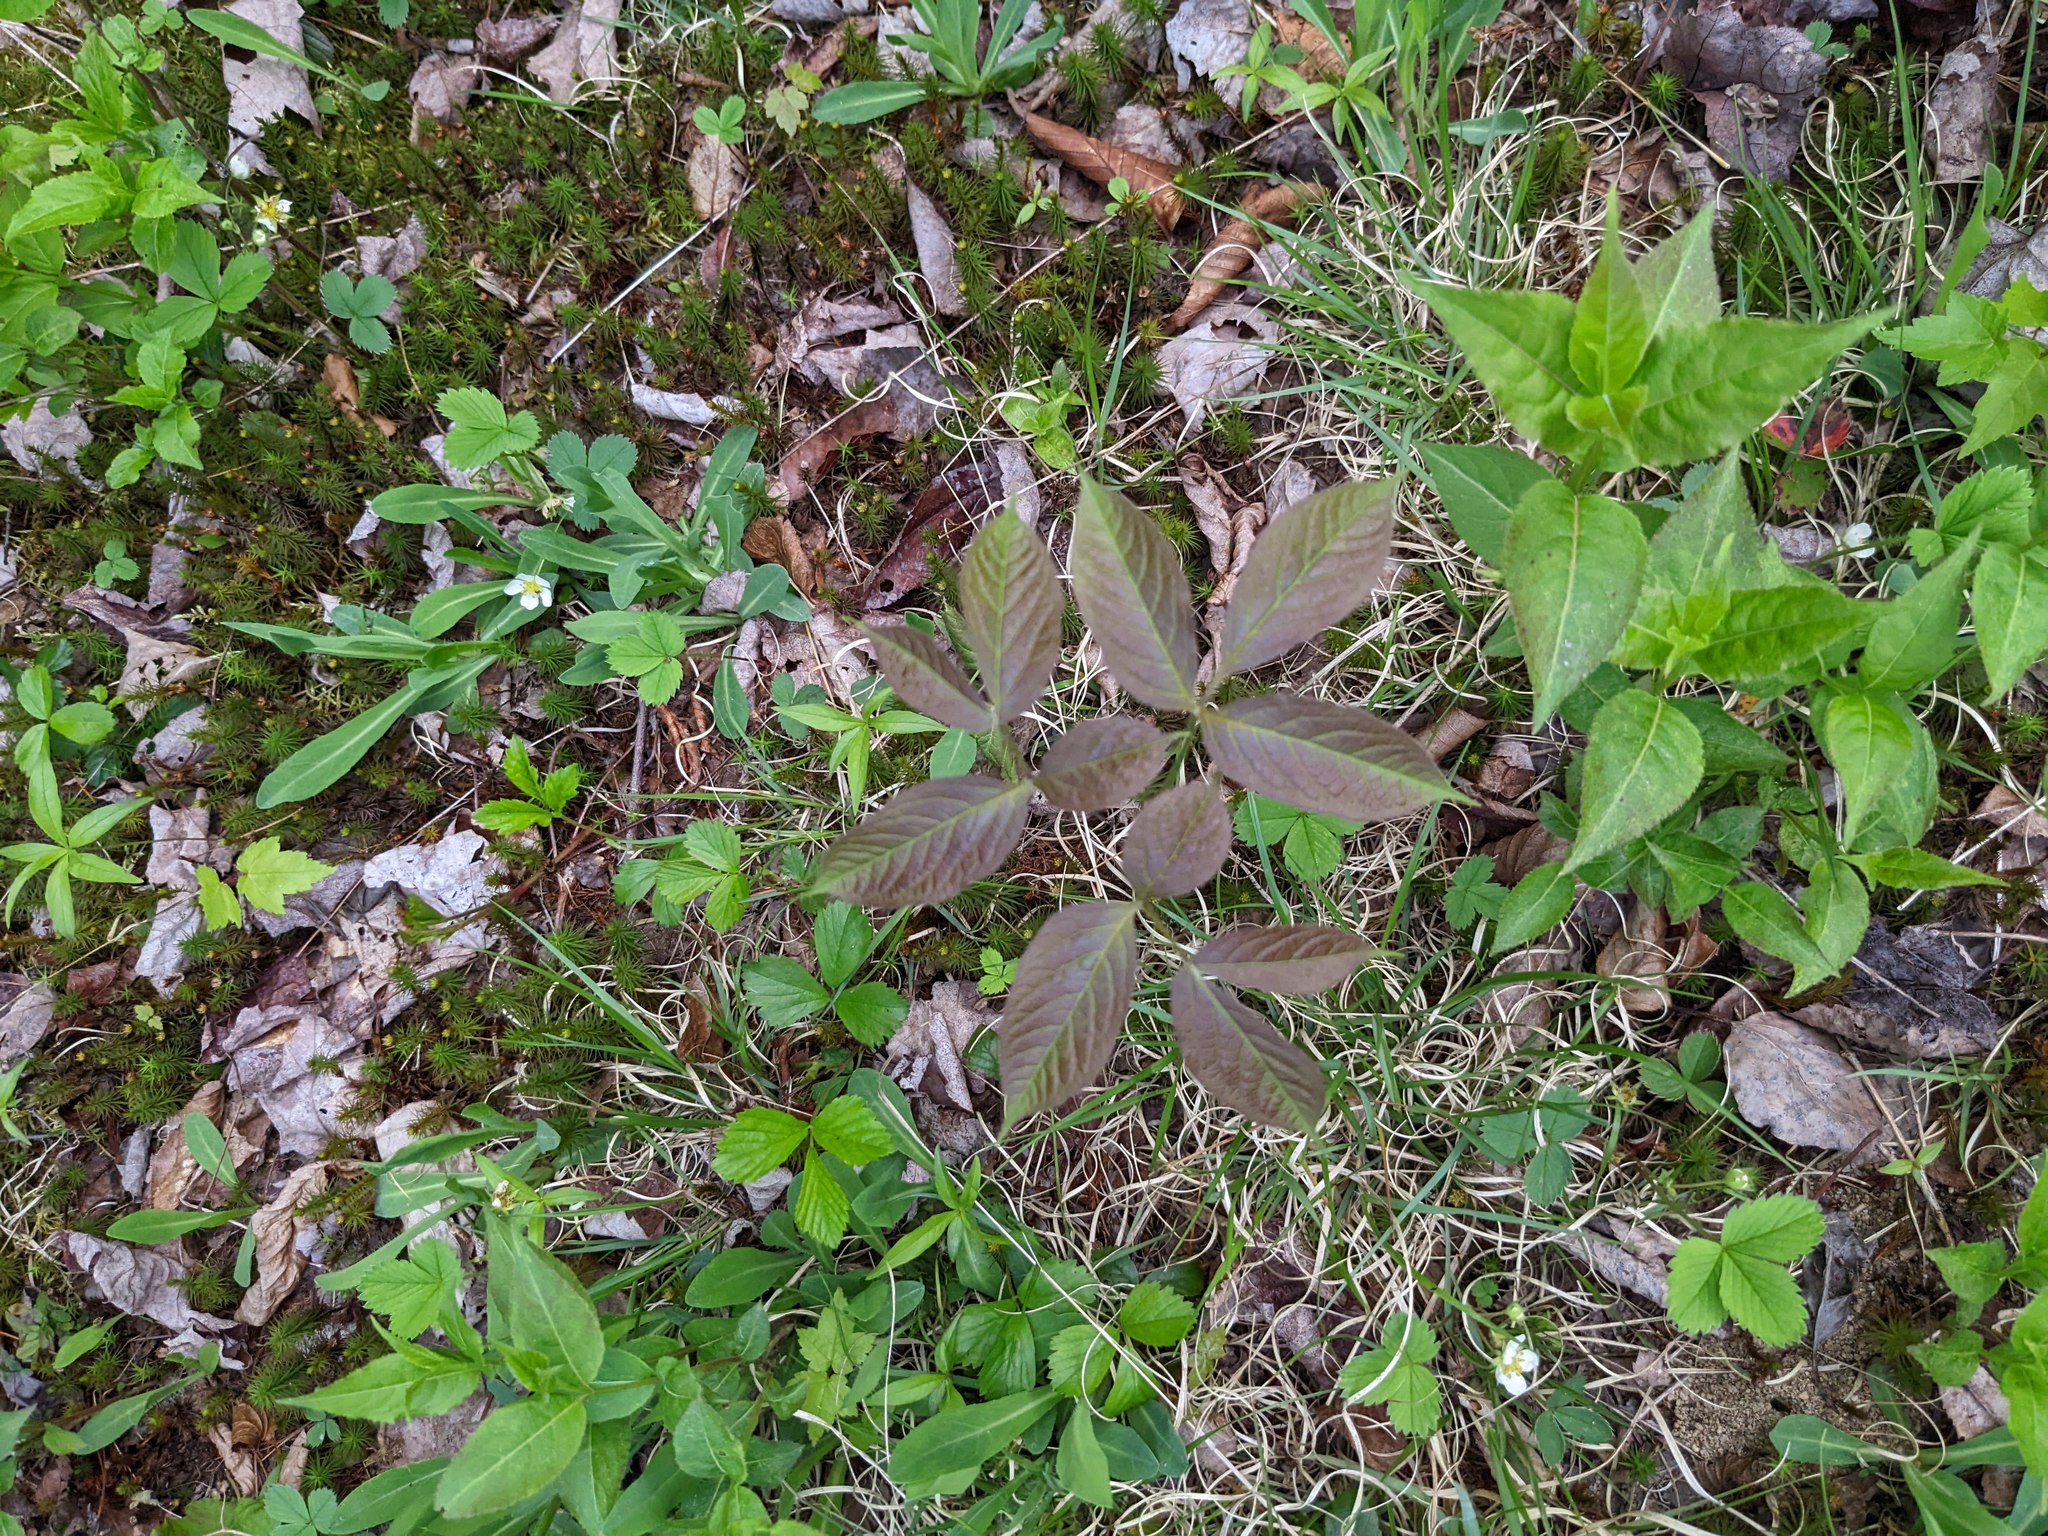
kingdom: Plantae
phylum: Tracheophyta
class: Magnoliopsida
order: Apiales
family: Araliaceae
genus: Aralia
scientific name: Aralia nudicaulis
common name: Wild sarsaparilla
